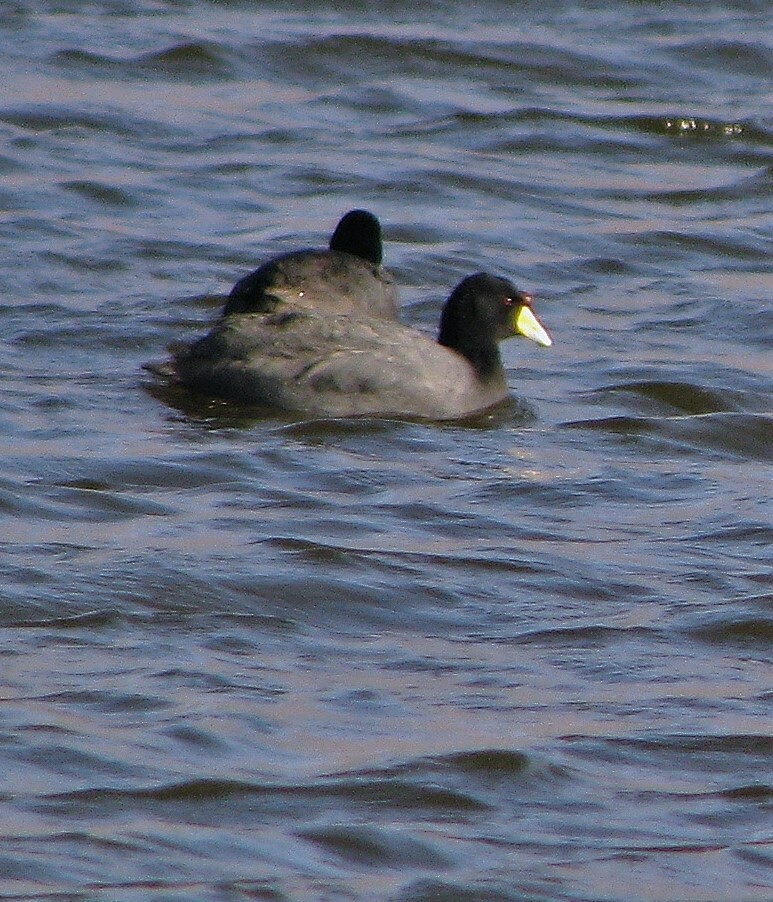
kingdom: Animalia
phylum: Chordata
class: Aves
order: Gruiformes
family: Rallidae
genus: Fulica
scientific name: Fulica ardesiaca
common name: Andean coot
